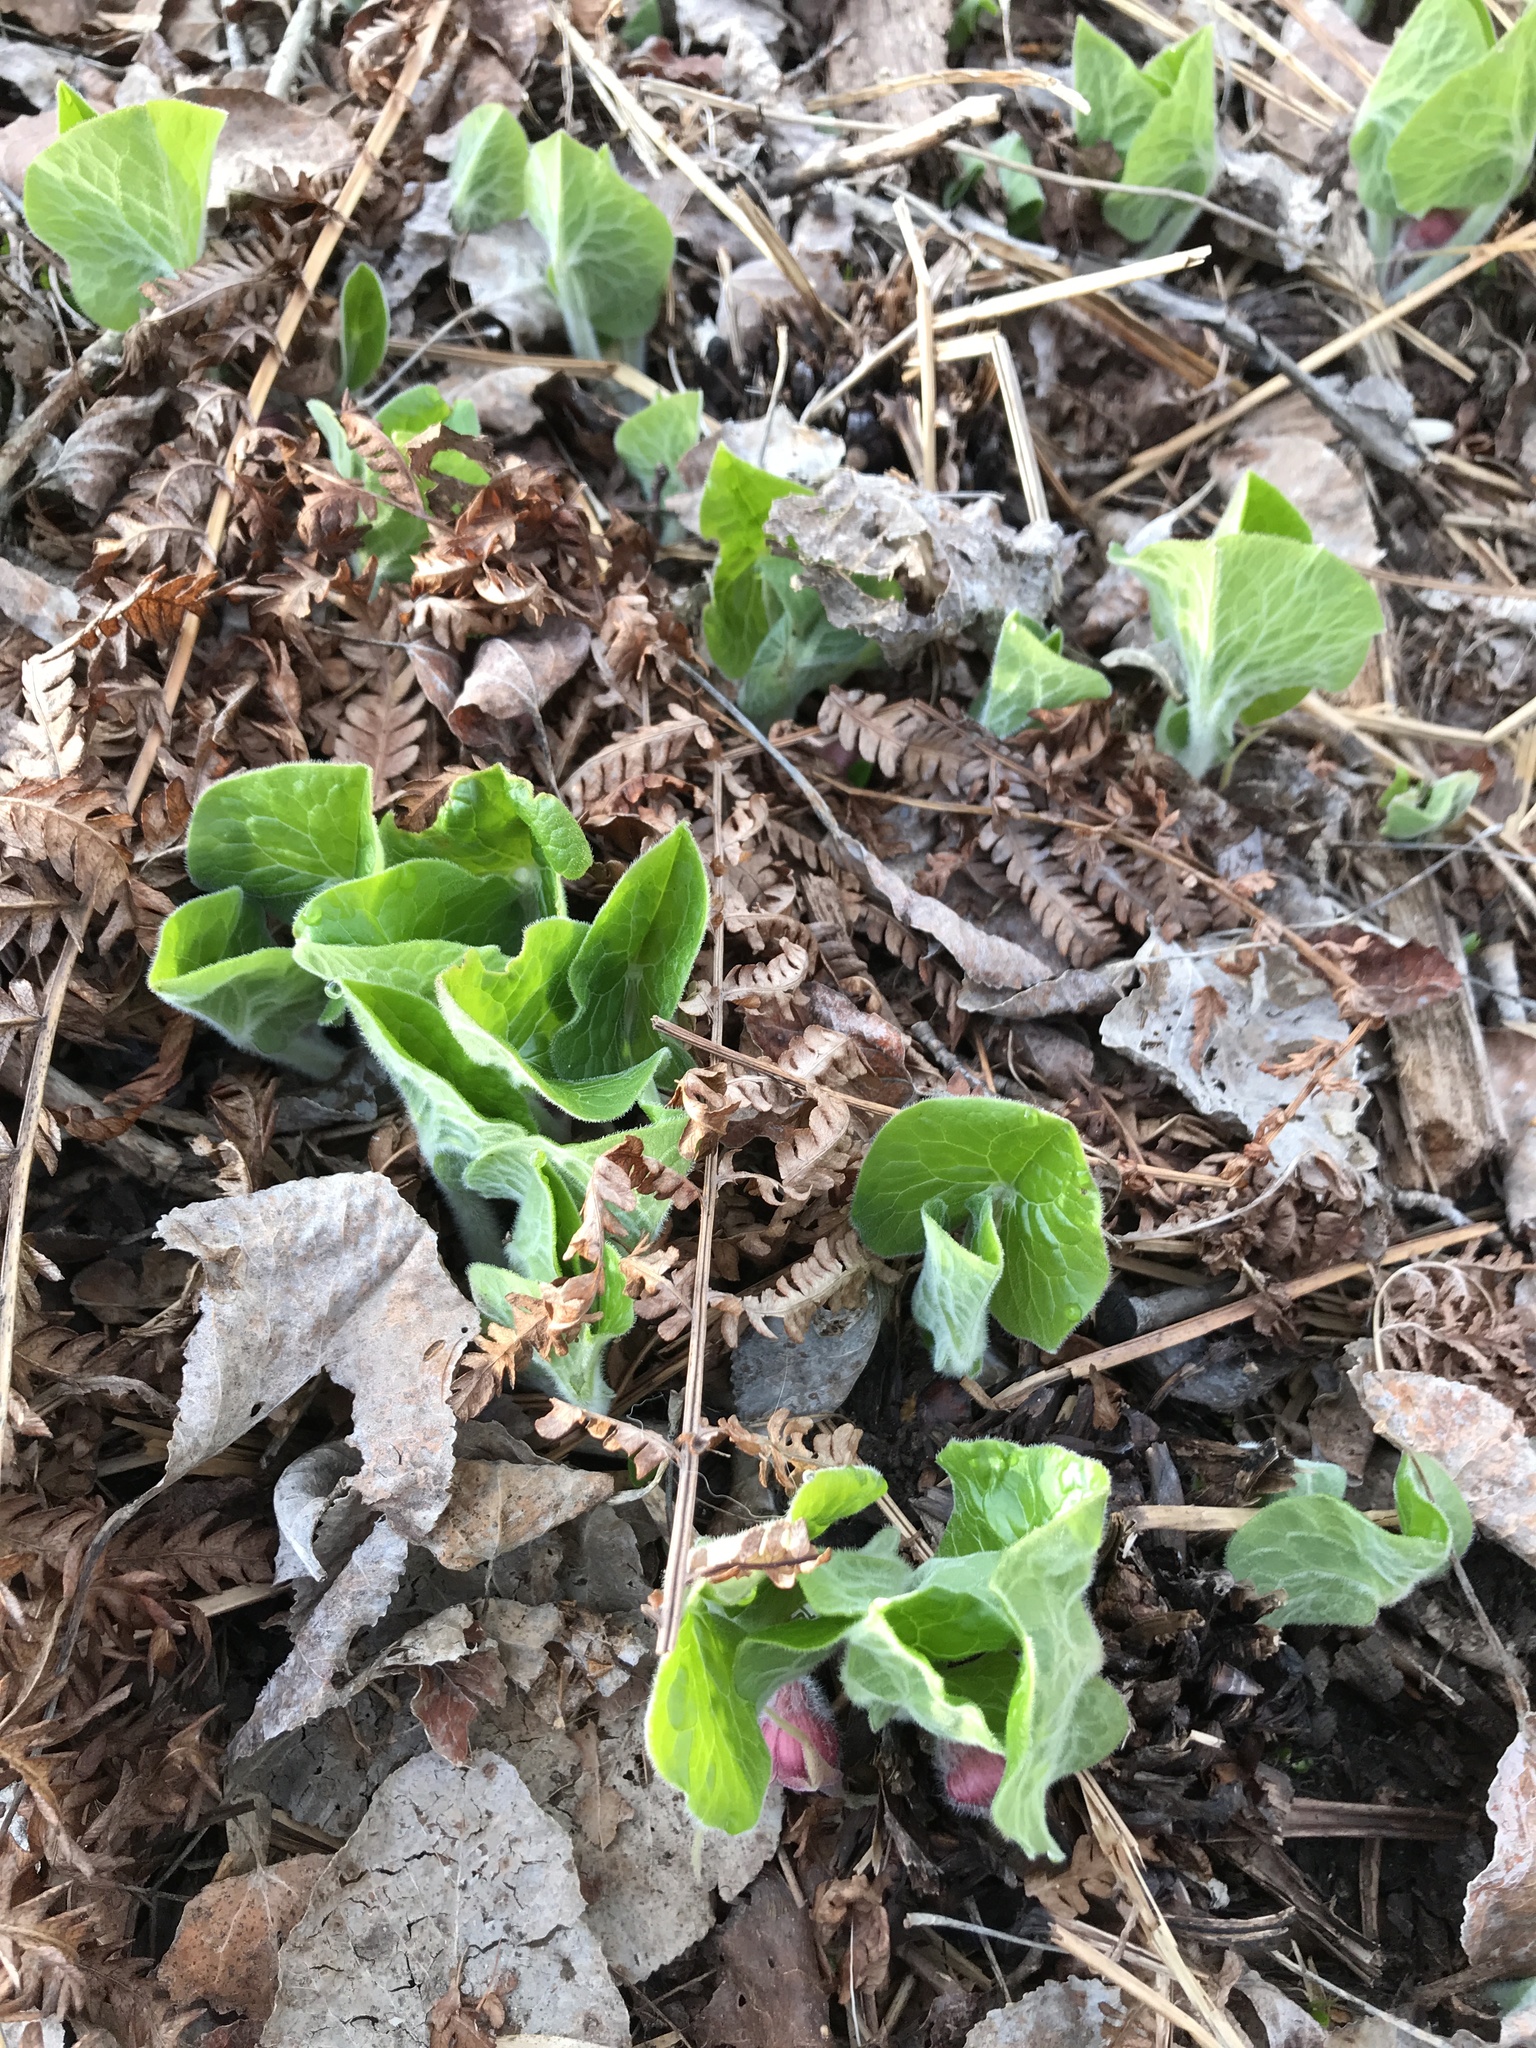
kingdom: Plantae
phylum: Tracheophyta
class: Magnoliopsida
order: Piperales
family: Aristolochiaceae
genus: Asarum
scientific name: Asarum canadense
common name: Wild ginger
